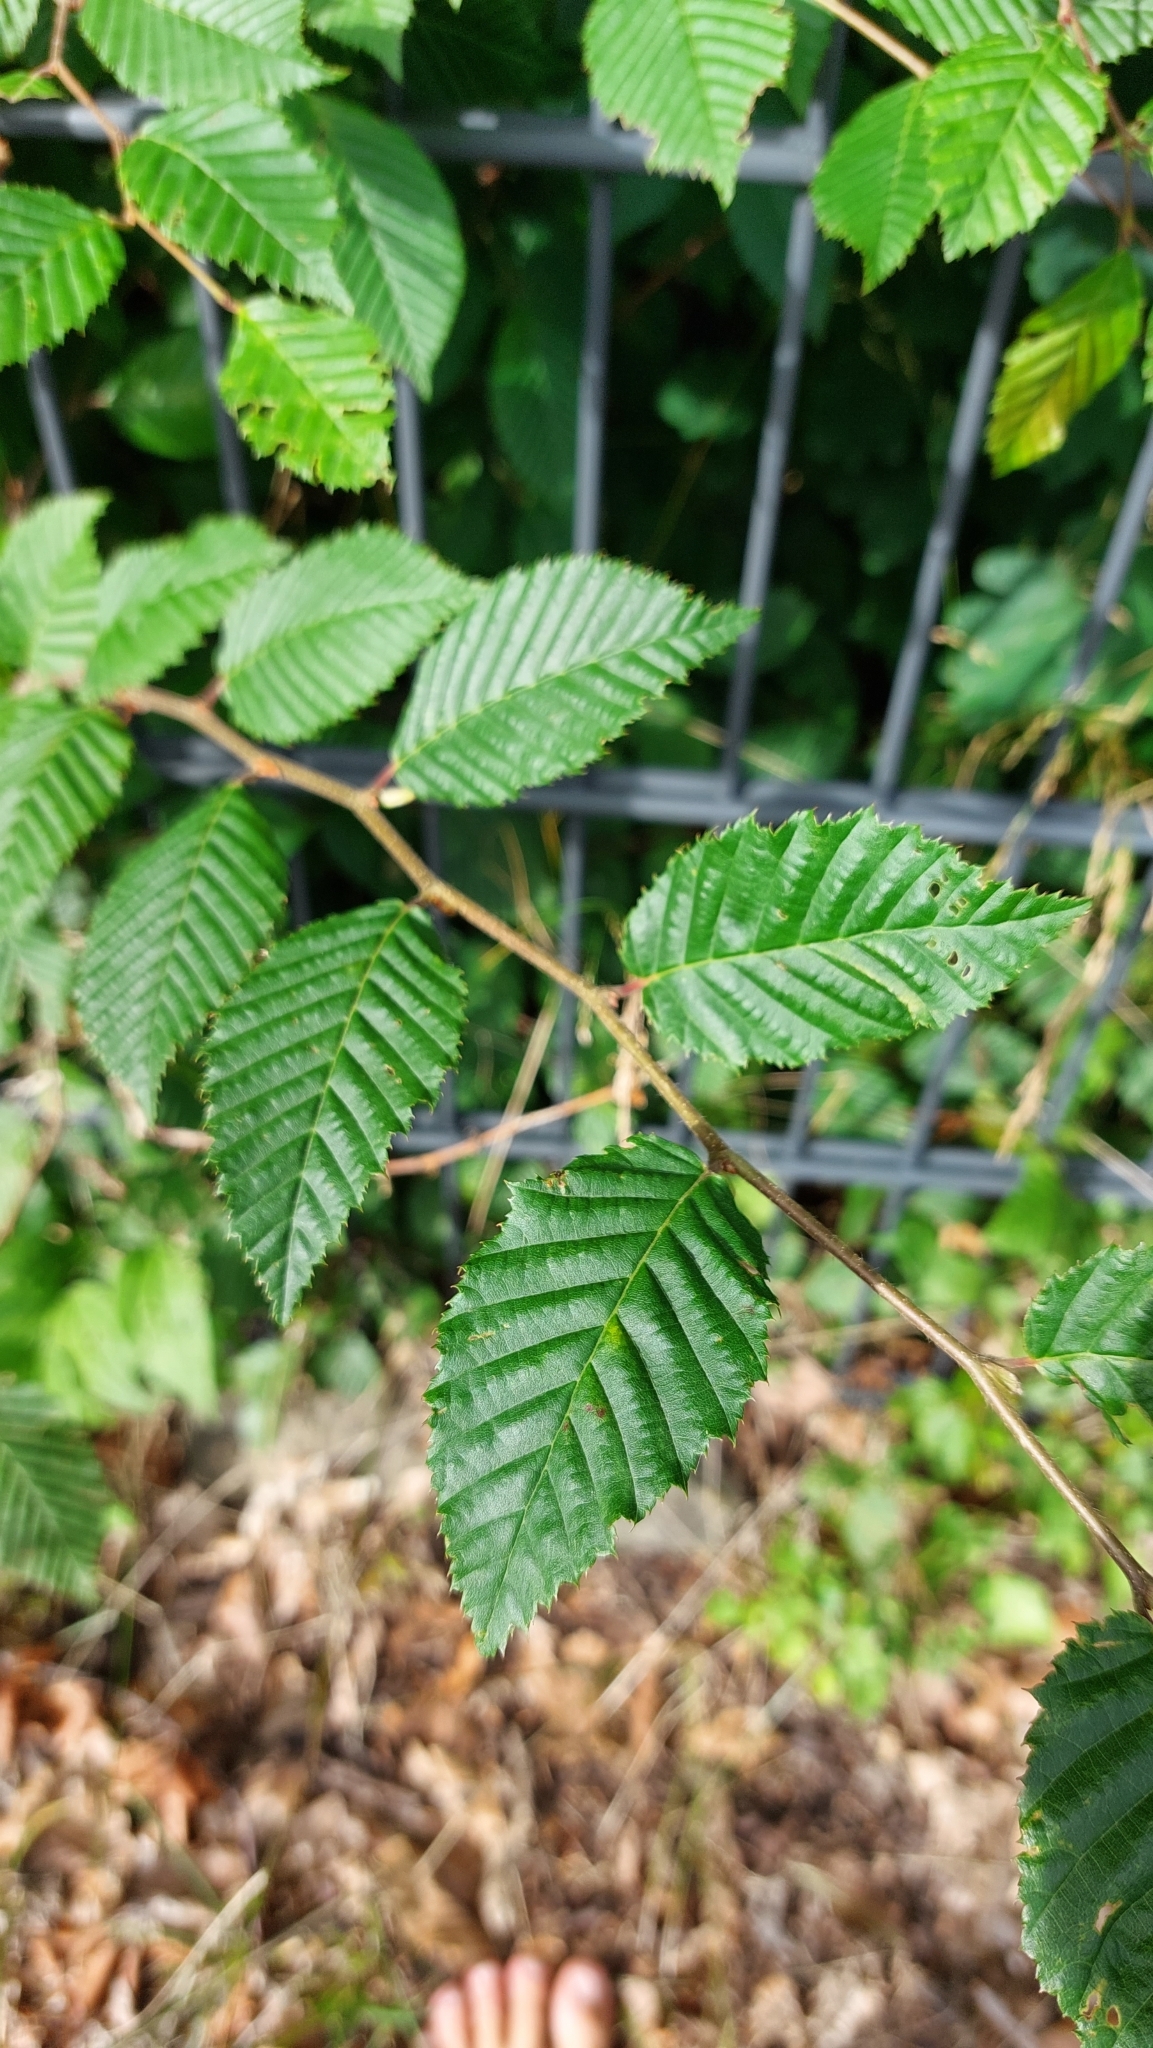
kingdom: Plantae
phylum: Tracheophyta
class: Magnoliopsida
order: Fagales
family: Betulaceae
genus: Carpinus
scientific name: Carpinus betulus
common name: Hornbeam
